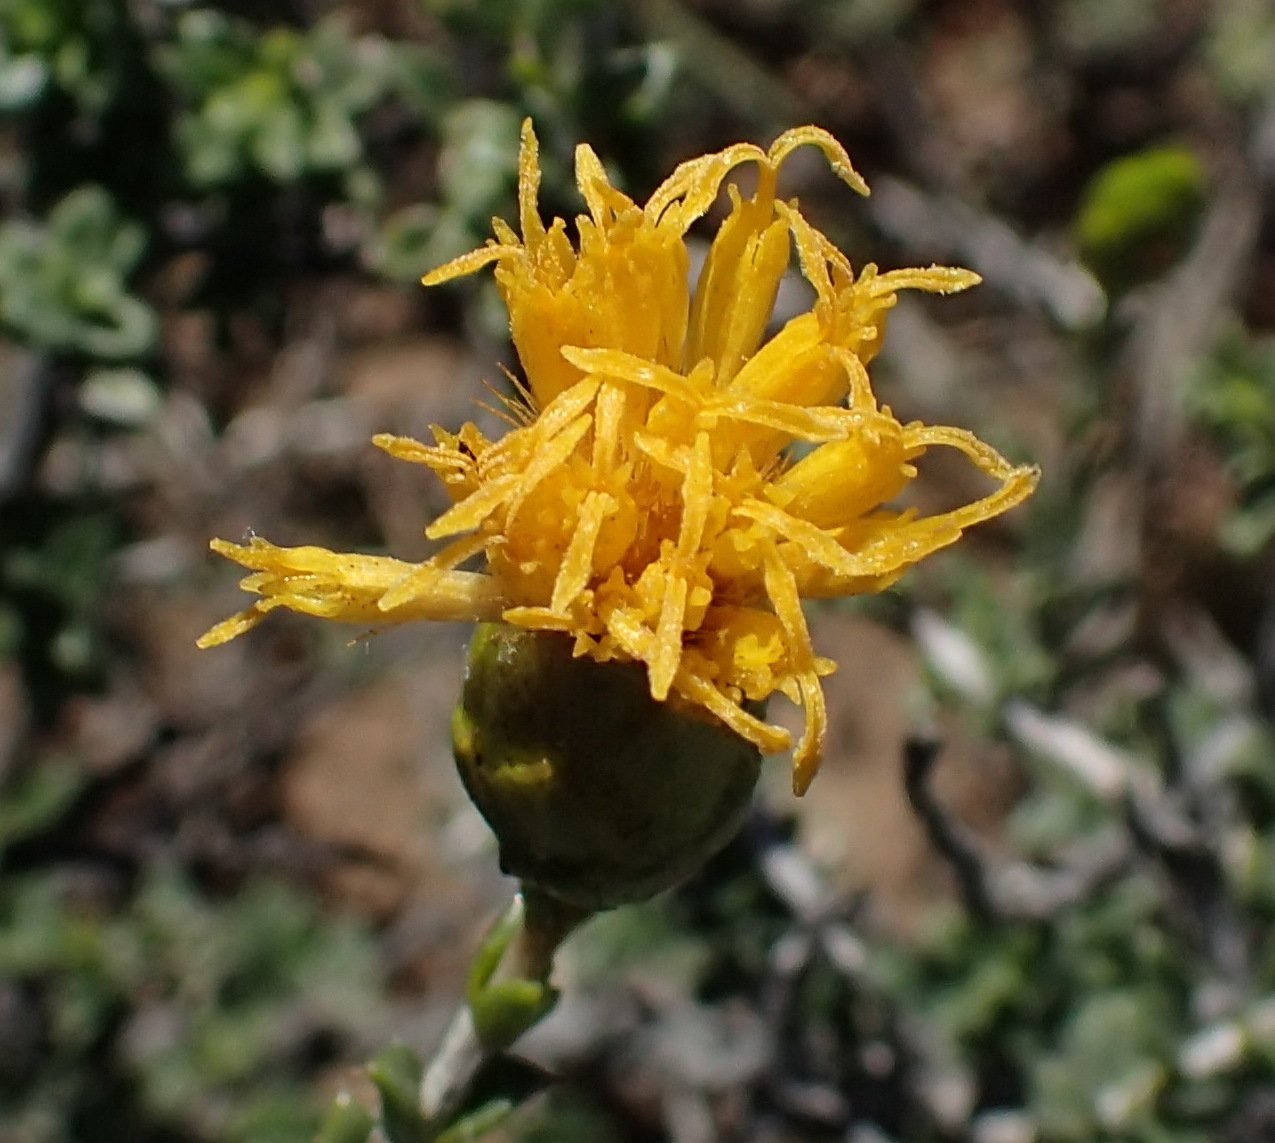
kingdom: Plantae
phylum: Tracheophyta
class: Magnoliopsida
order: Asterales
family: Asteraceae
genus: Pteronia
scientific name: Pteronia viscosa
